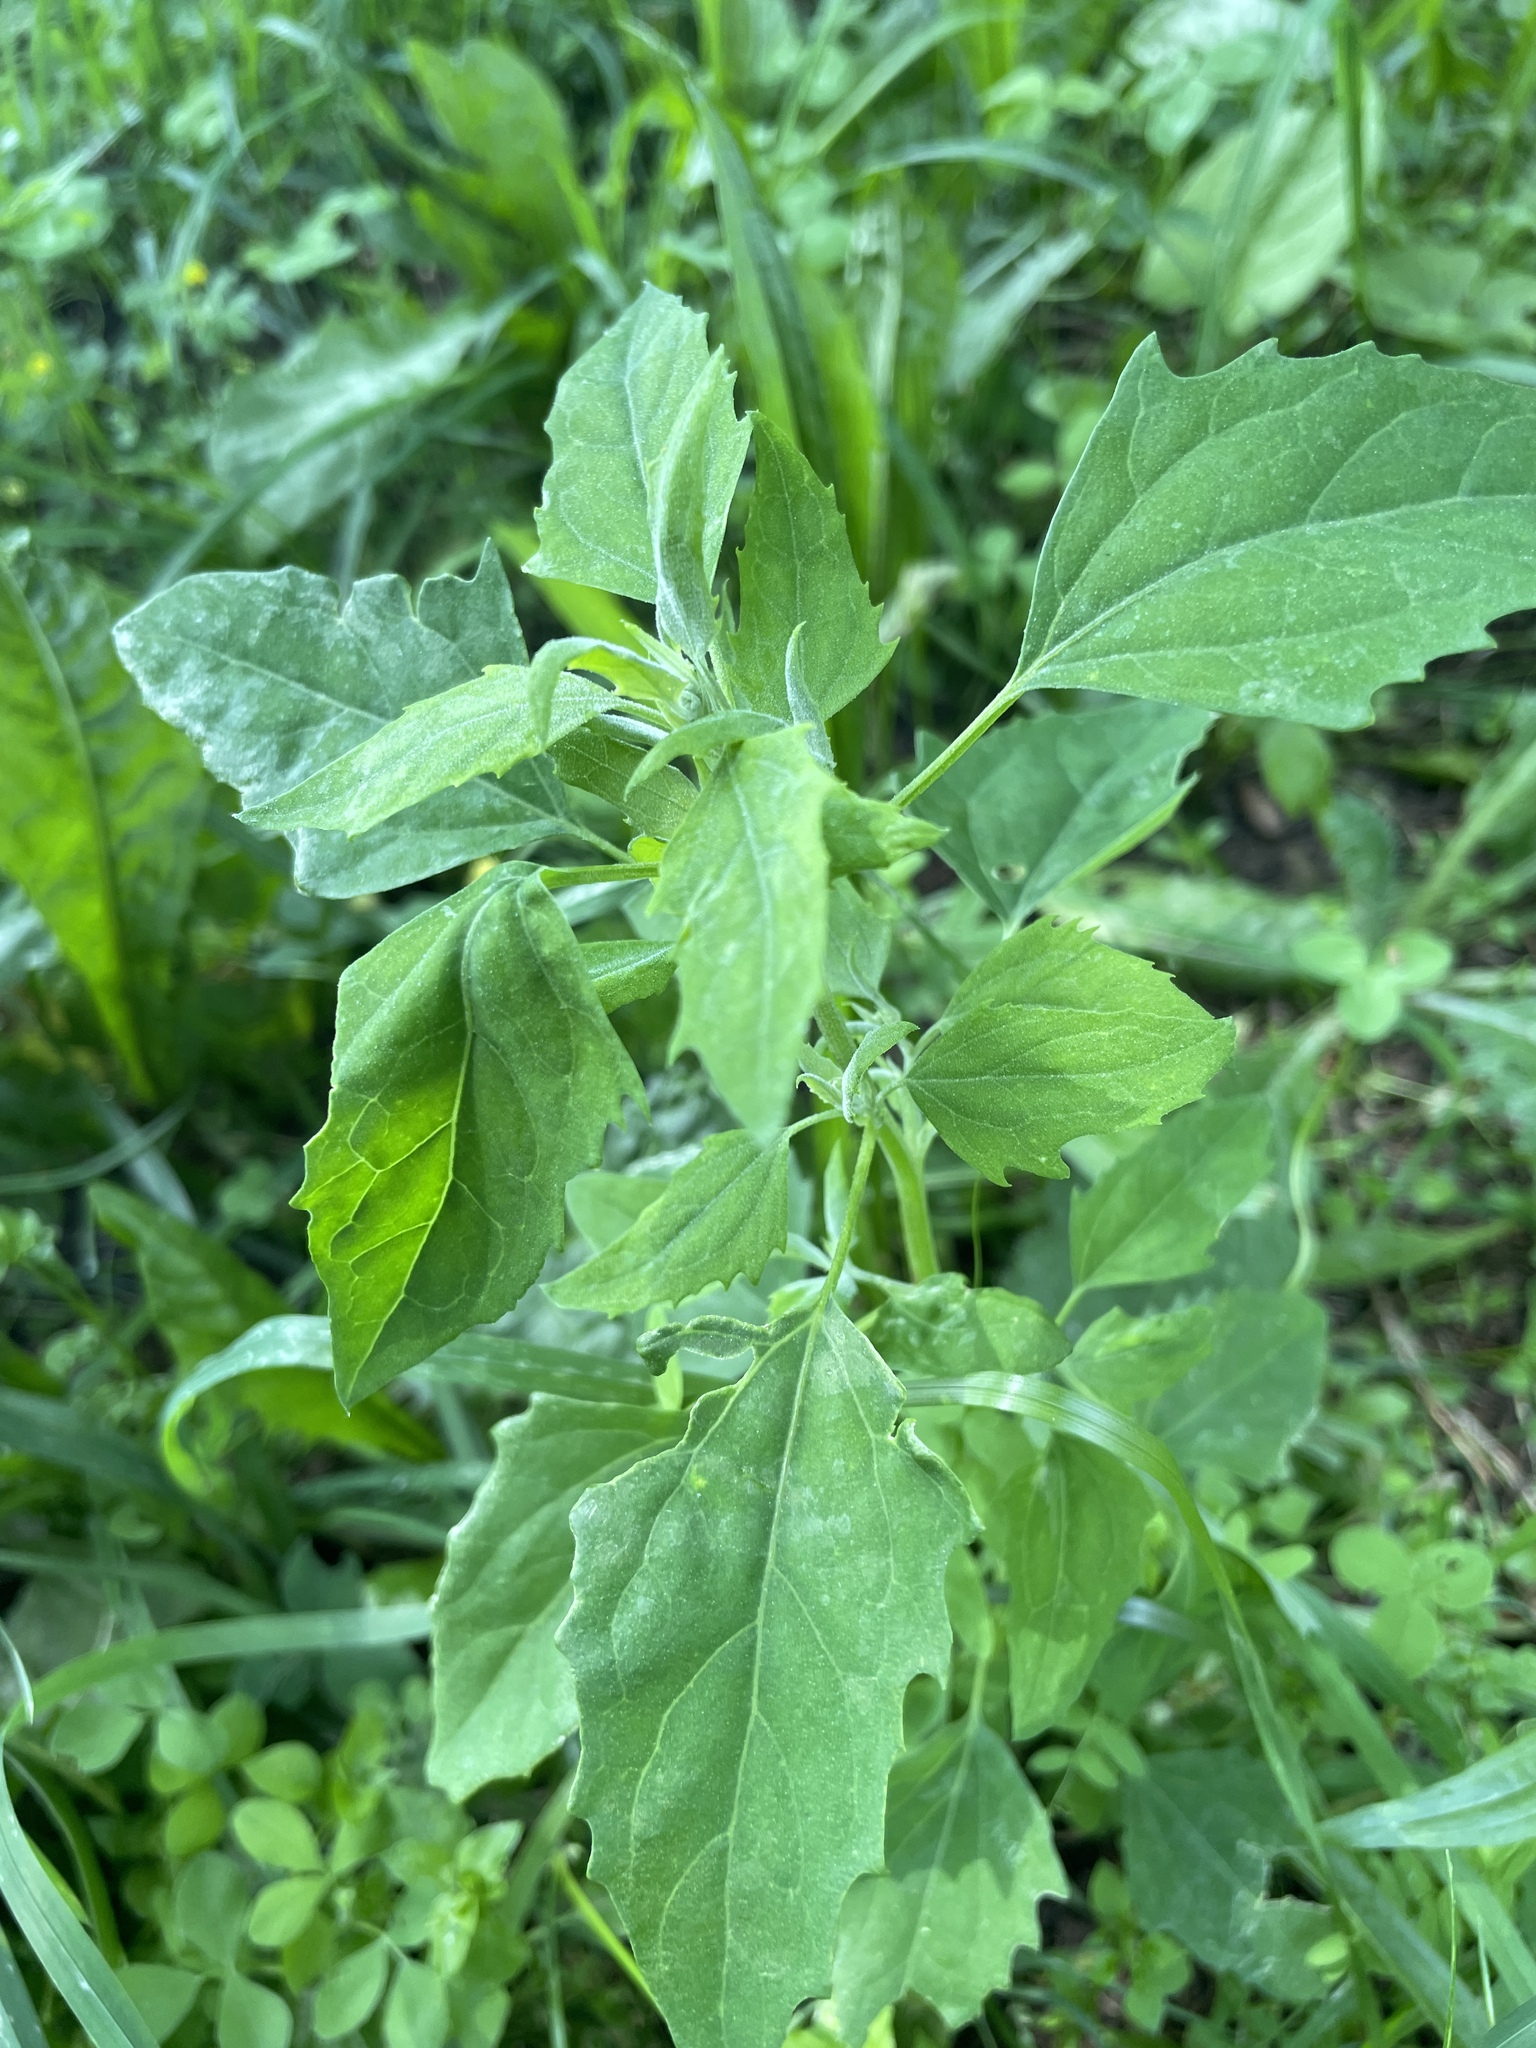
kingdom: Plantae
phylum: Tracheophyta
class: Magnoliopsida
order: Caryophyllales
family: Amaranthaceae
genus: Chenopodium
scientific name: Chenopodium album
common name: Fat-hen
